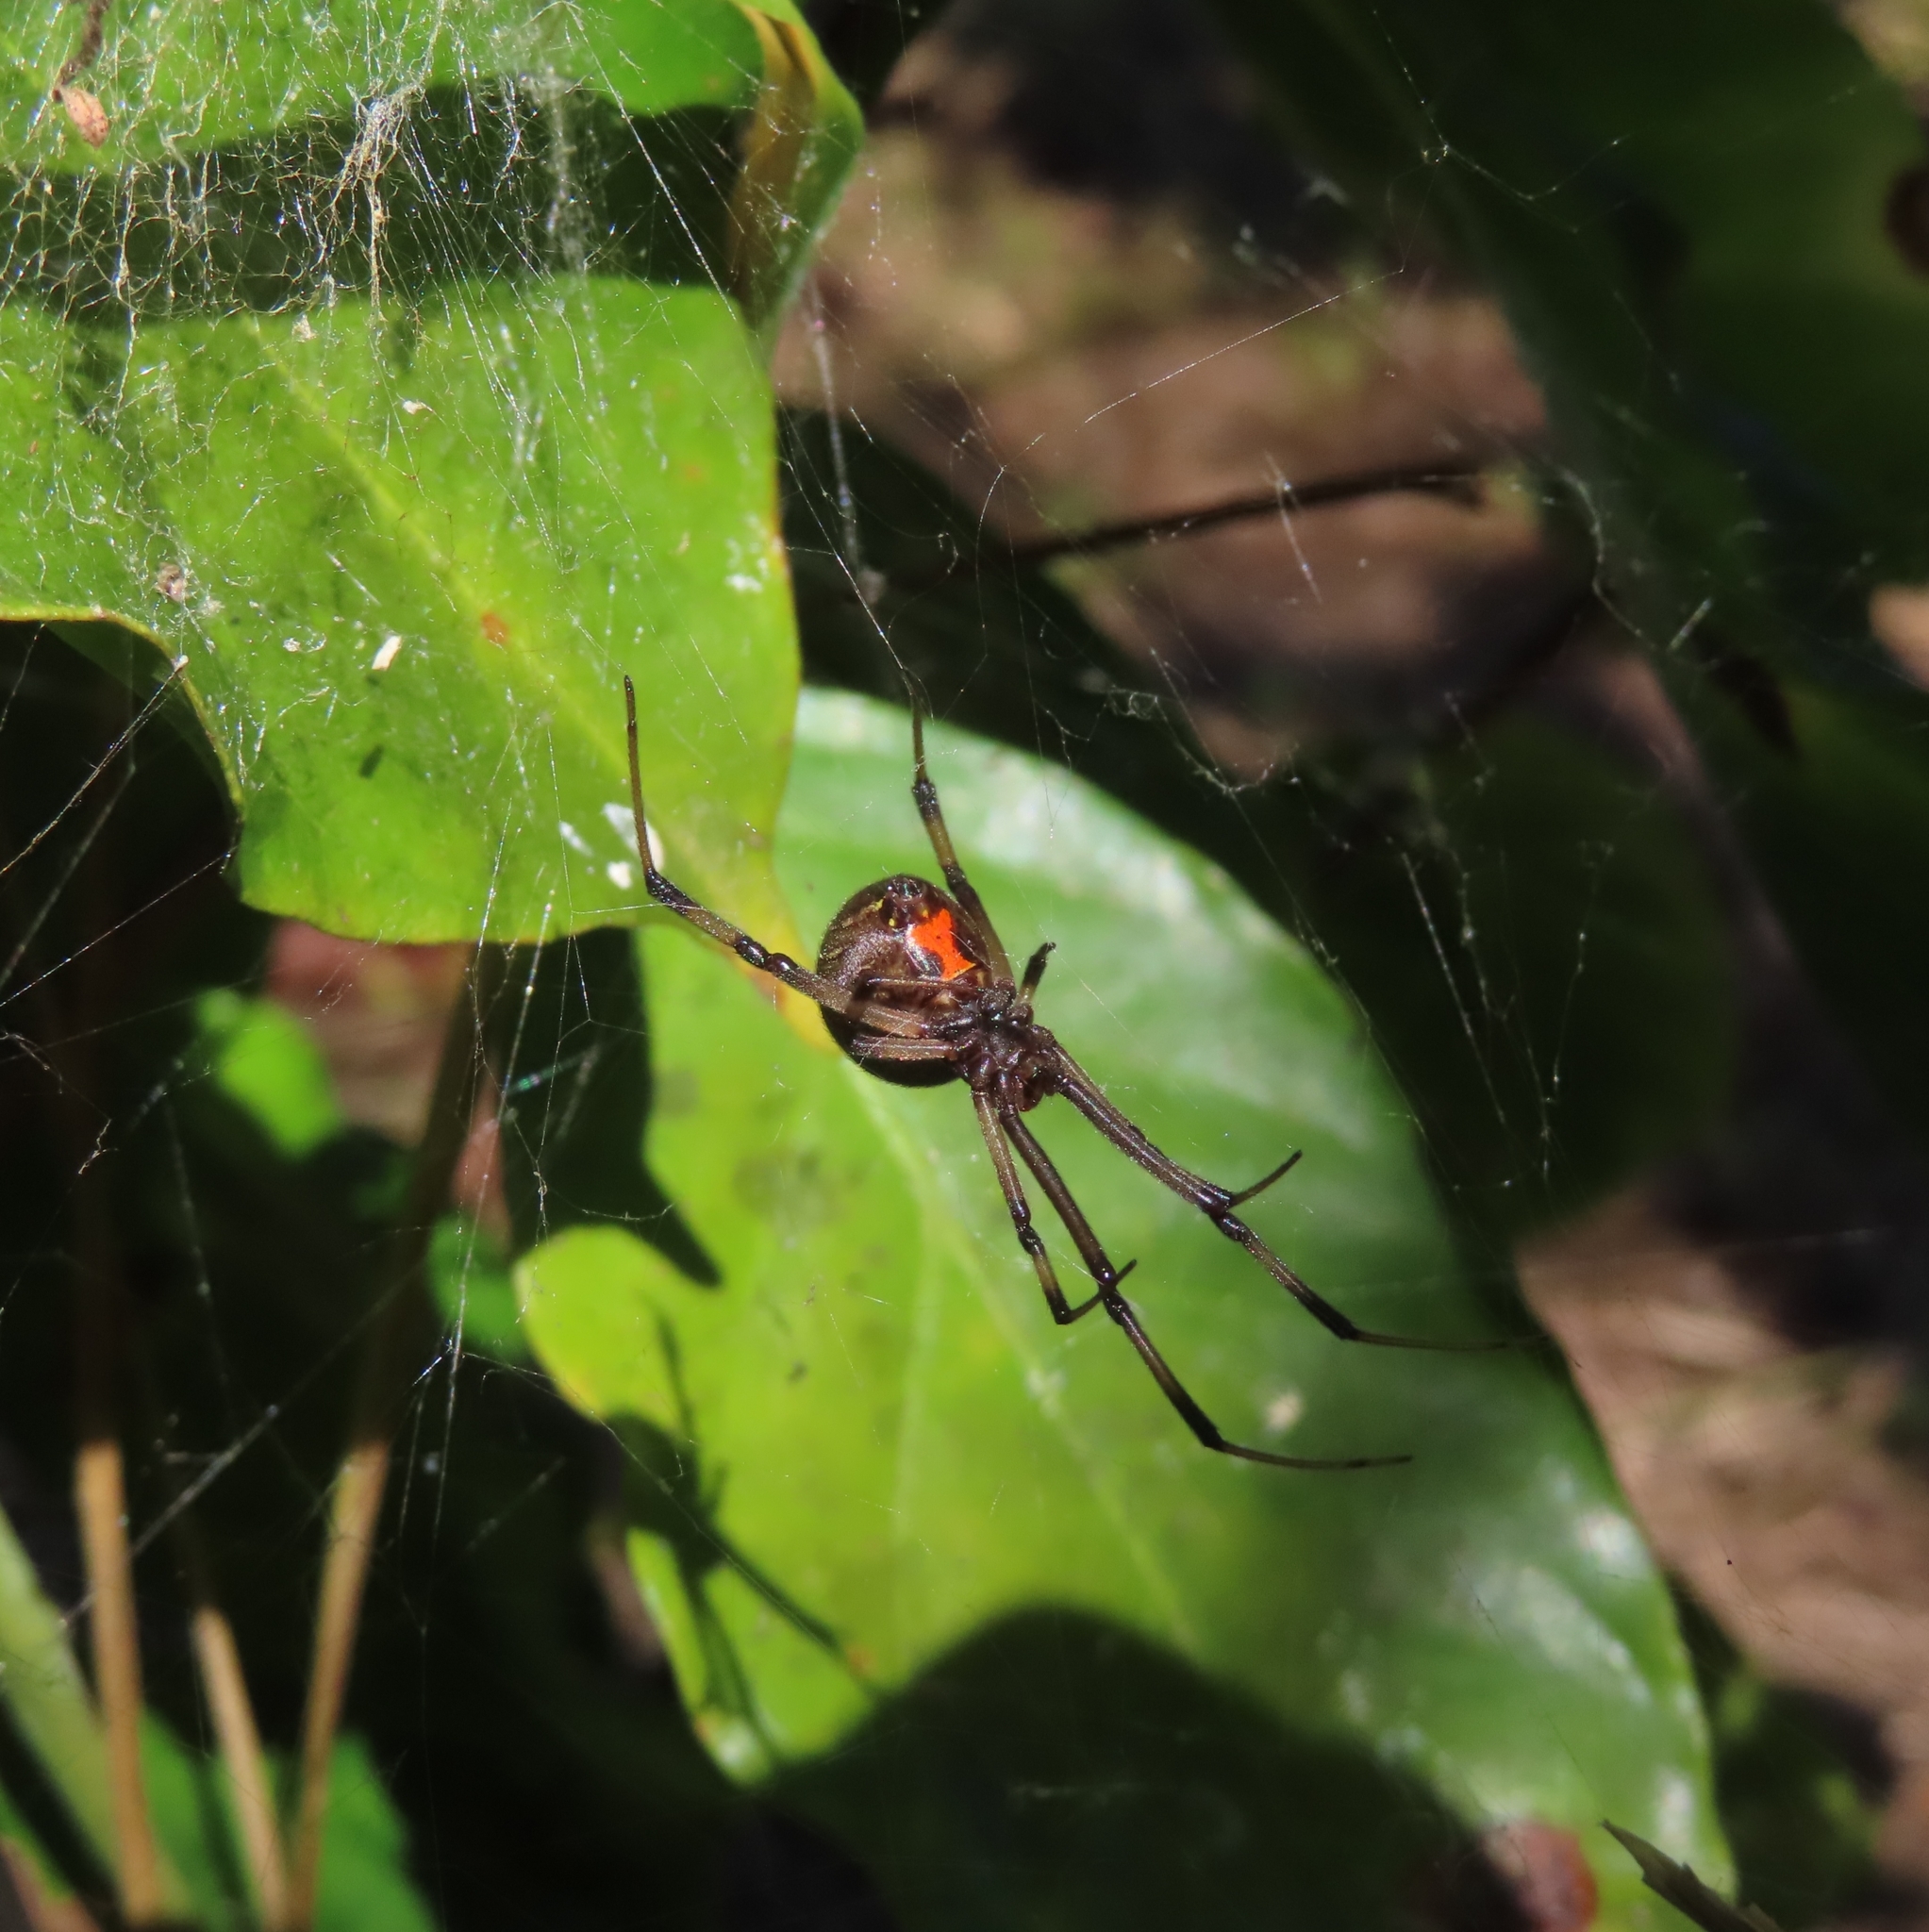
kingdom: Animalia
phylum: Arthropoda
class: Arachnida
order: Araneae
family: Theridiidae
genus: Latrodectus
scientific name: Latrodectus geometricus
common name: Brown widow spider
